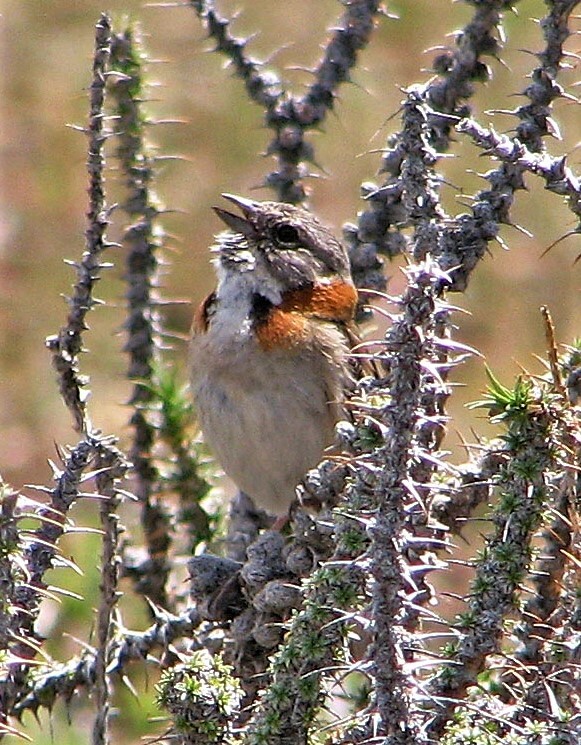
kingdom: Animalia
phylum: Chordata
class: Aves
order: Passeriformes
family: Passerellidae
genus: Zonotrichia
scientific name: Zonotrichia capensis
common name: Rufous-collared sparrow
